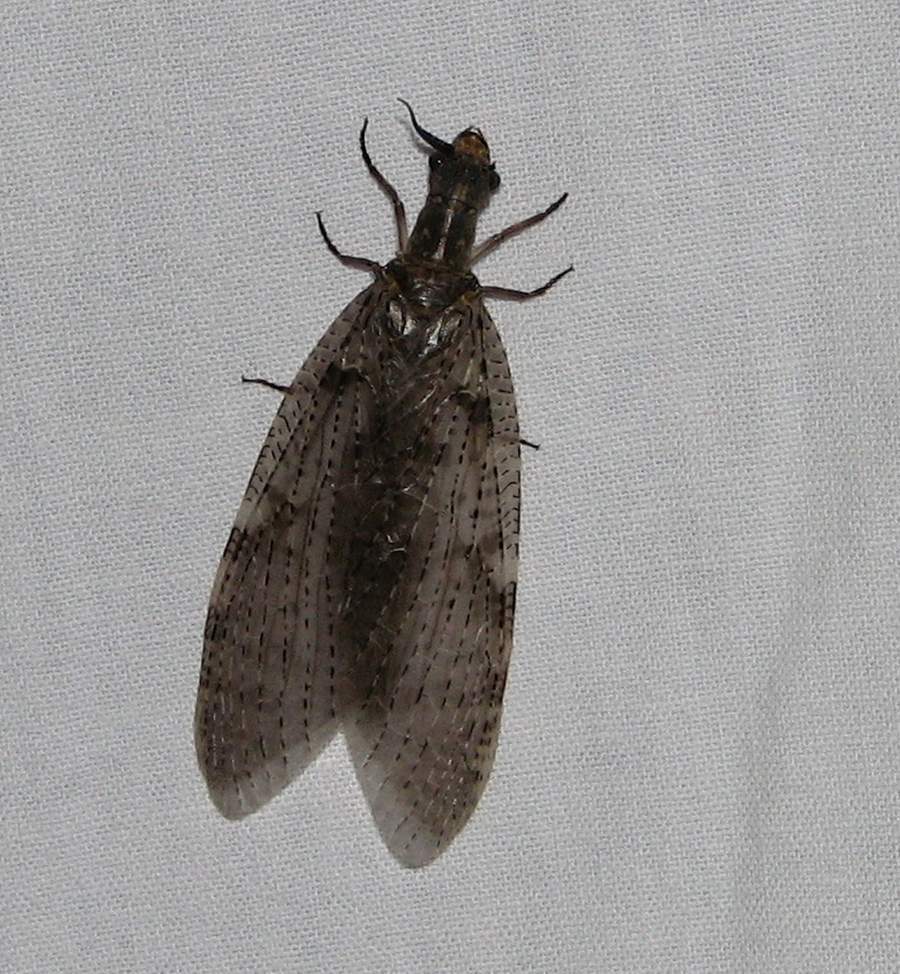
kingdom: Animalia
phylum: Arthropoda
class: Insecta
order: Megaloptera
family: Corydalidae
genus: Chauliodes
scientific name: Chauliodes pectinicornis
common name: Summer fishfly
